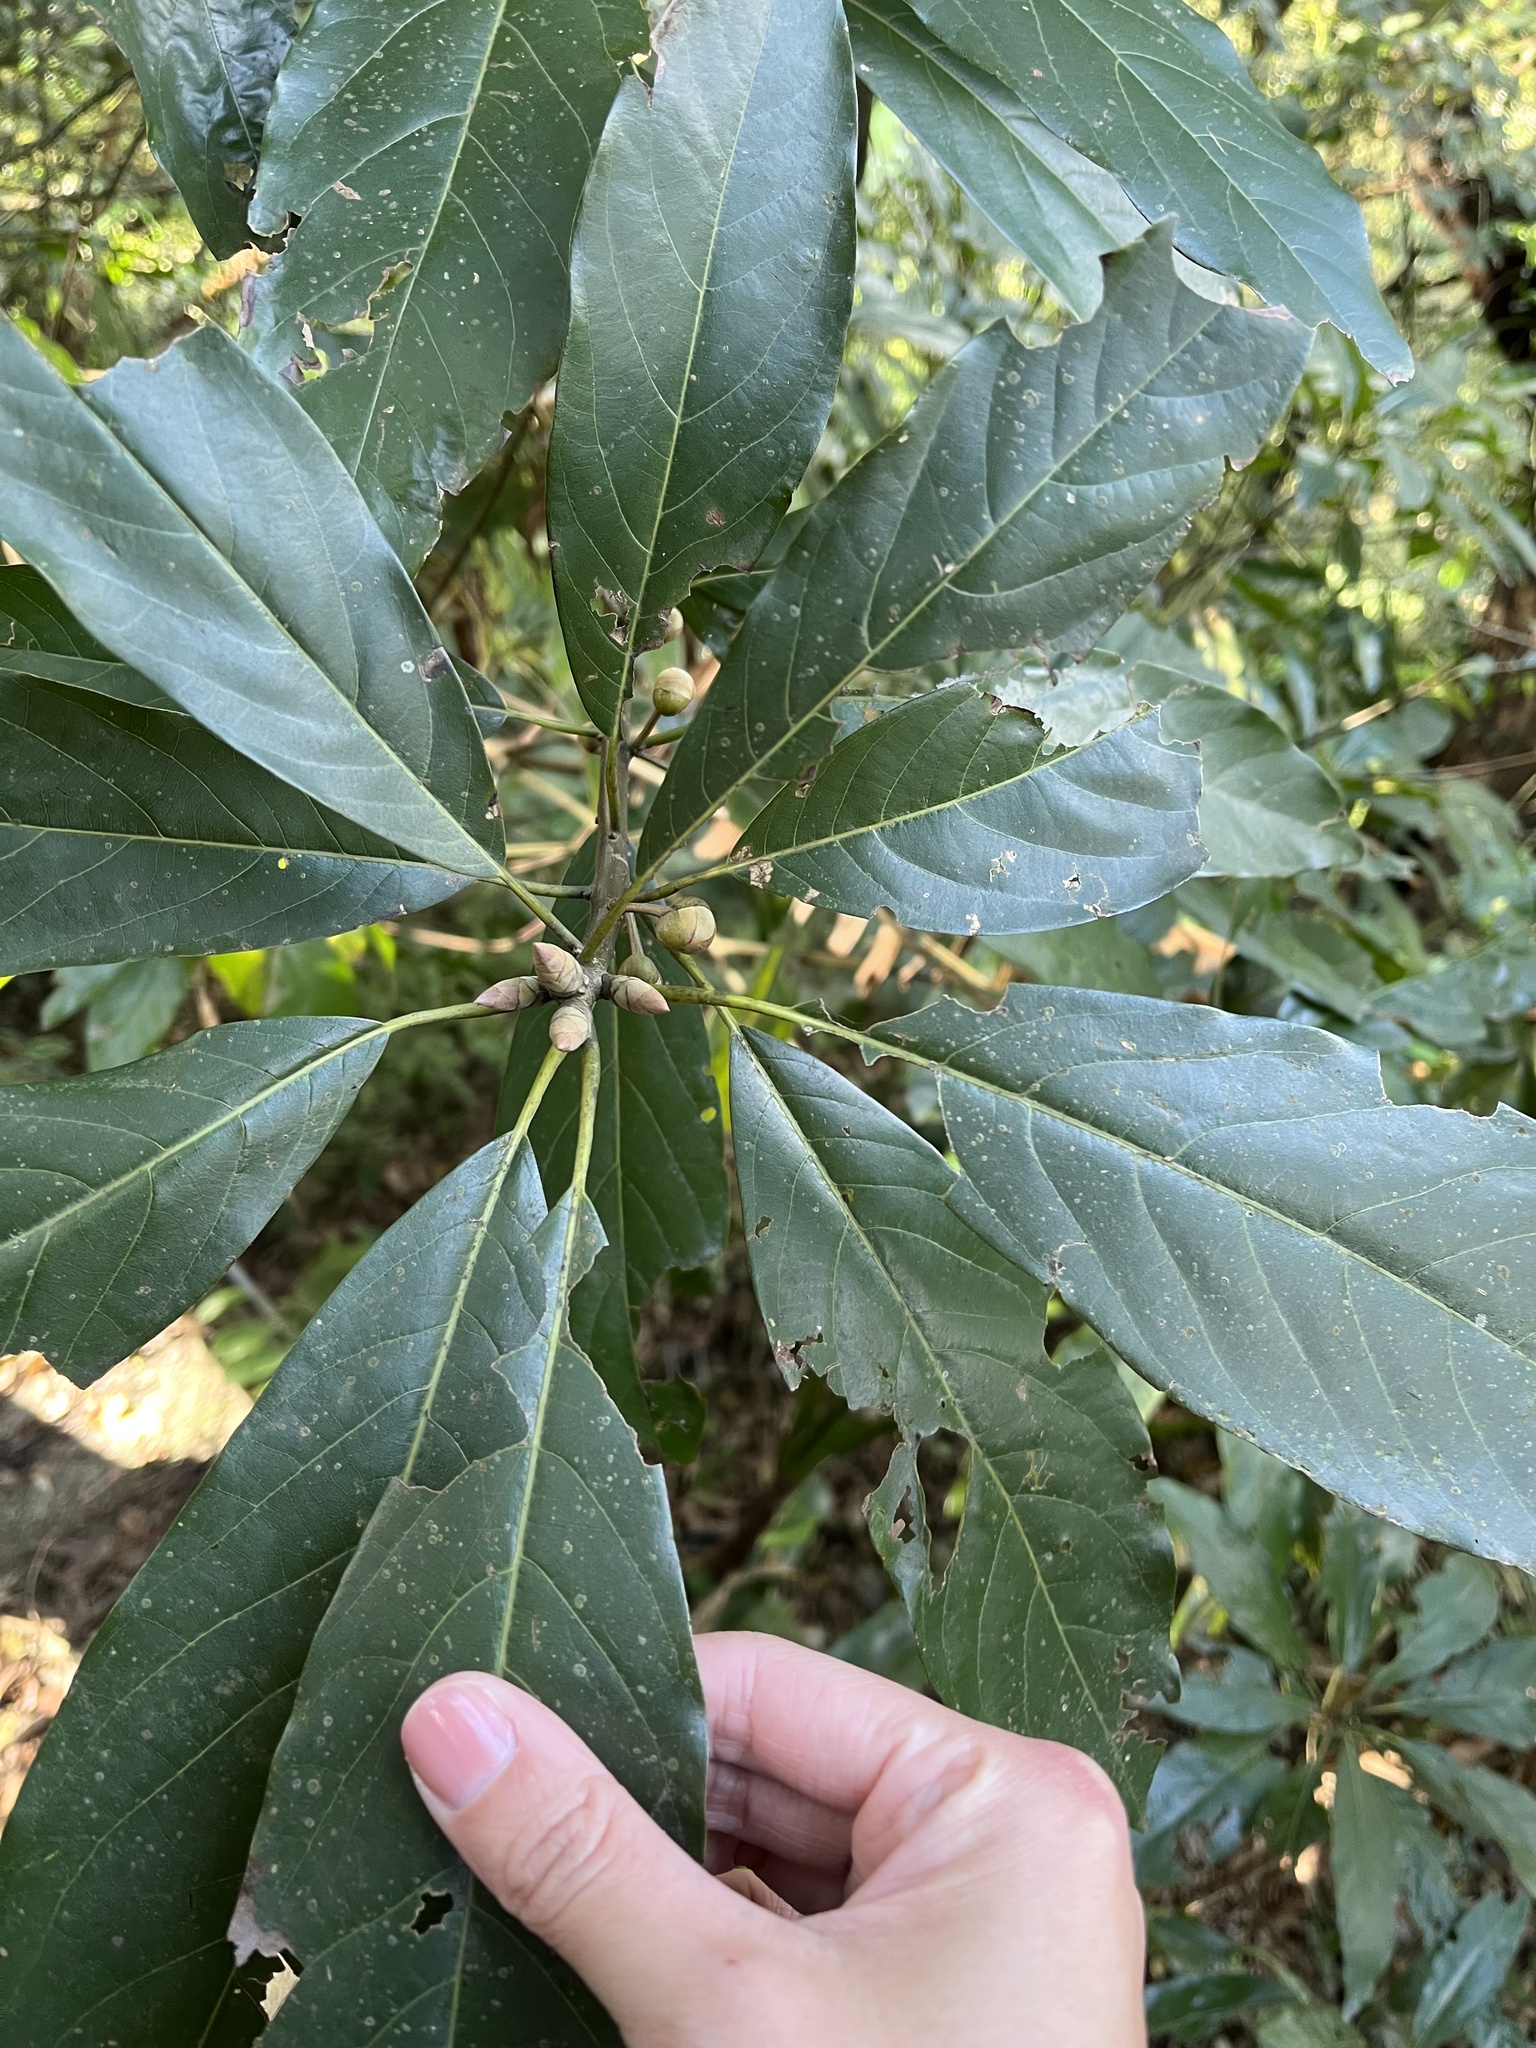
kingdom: Plantae
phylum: Tracheophyta
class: Magnoliopsida
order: Laurales
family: Lauraceae
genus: Lindera
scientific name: Lindera megaphylla
